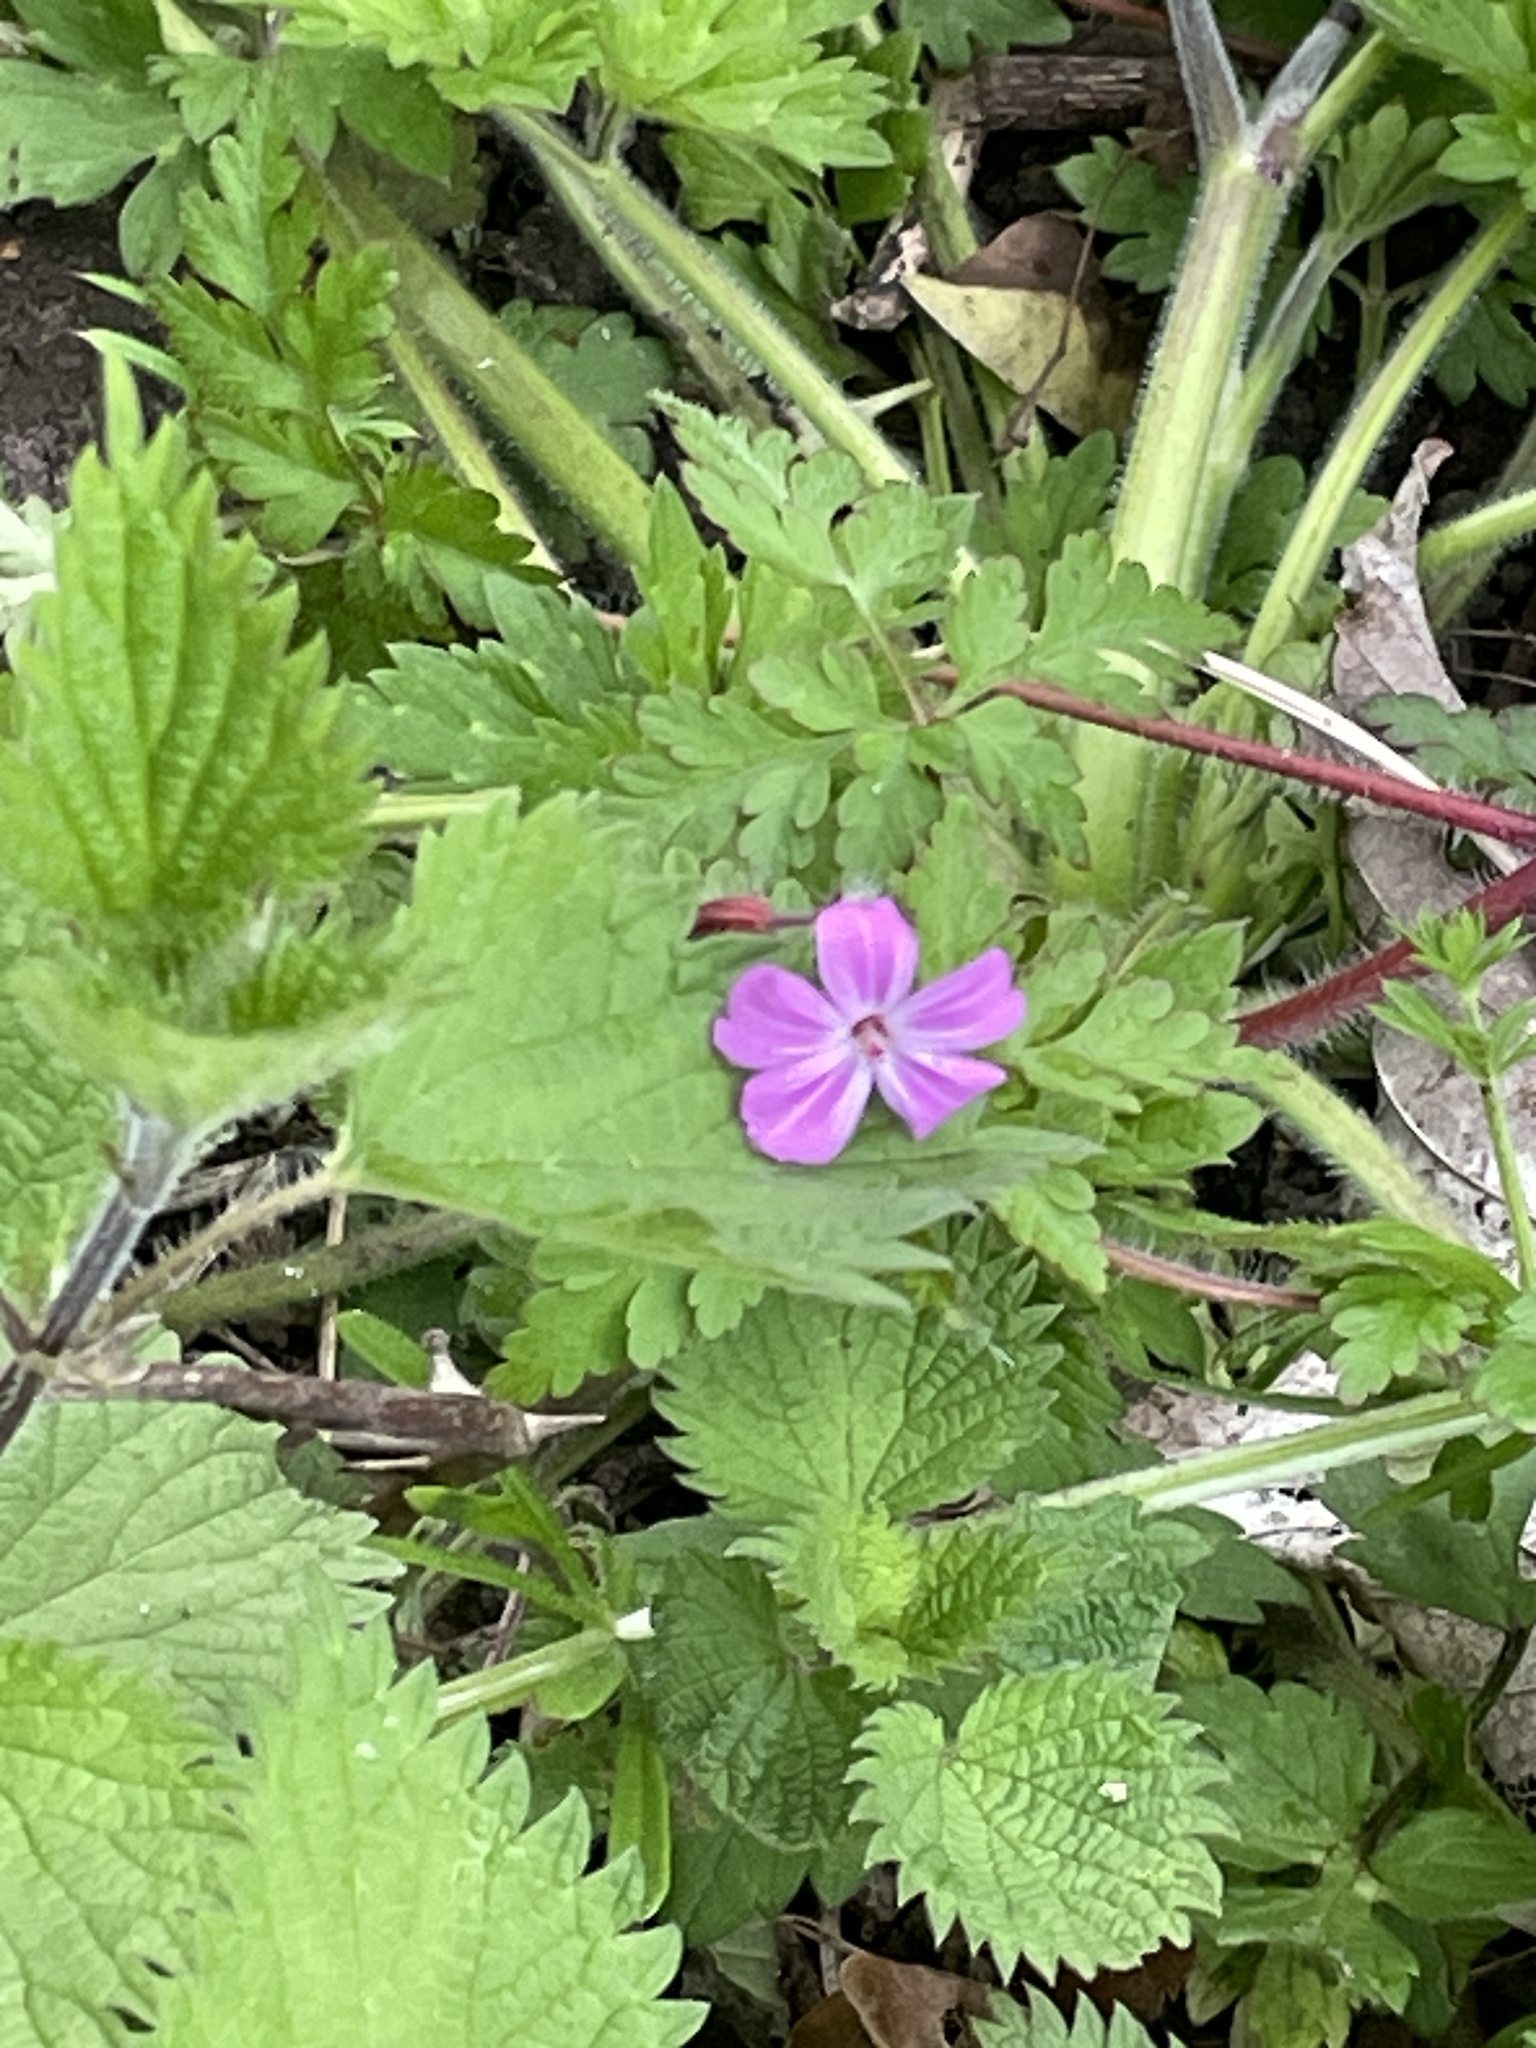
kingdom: Plantae
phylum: Tracheophyta
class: Magnoliopsida
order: Geraniales
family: Geraniaceae
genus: Geranium
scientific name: Geranium robertianum
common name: Herb-robert
